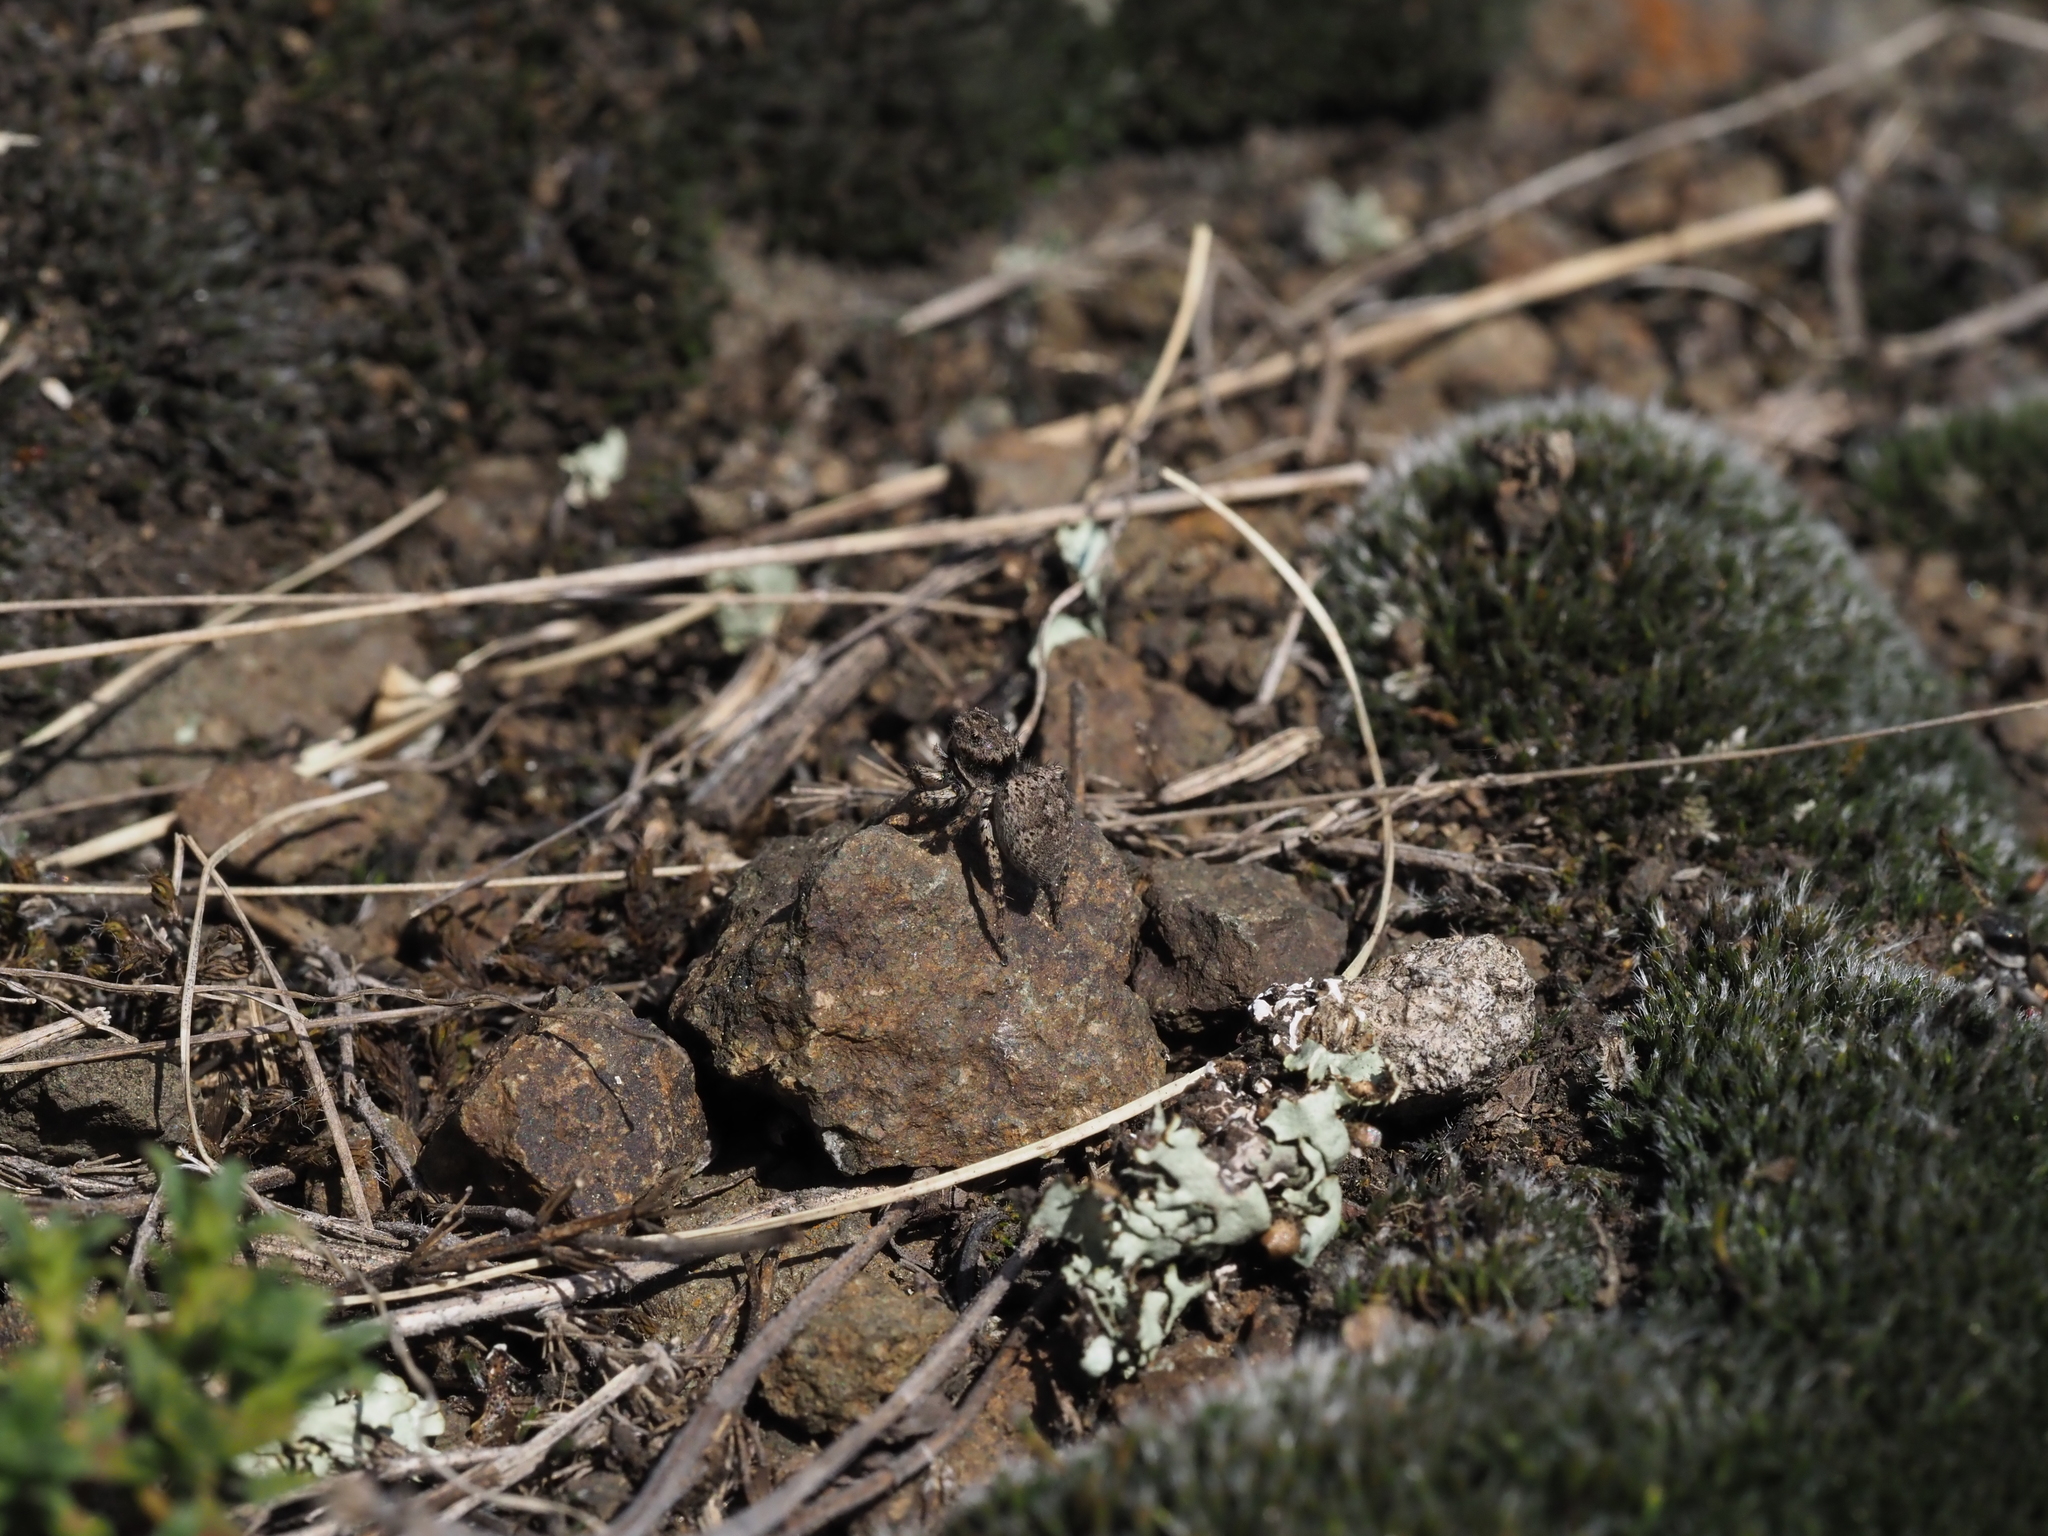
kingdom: Animalia
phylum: Arthropoda
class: Arachnida
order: Araneae
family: Salticidae
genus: Aelurillus
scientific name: Aelurillus v-insignitus
